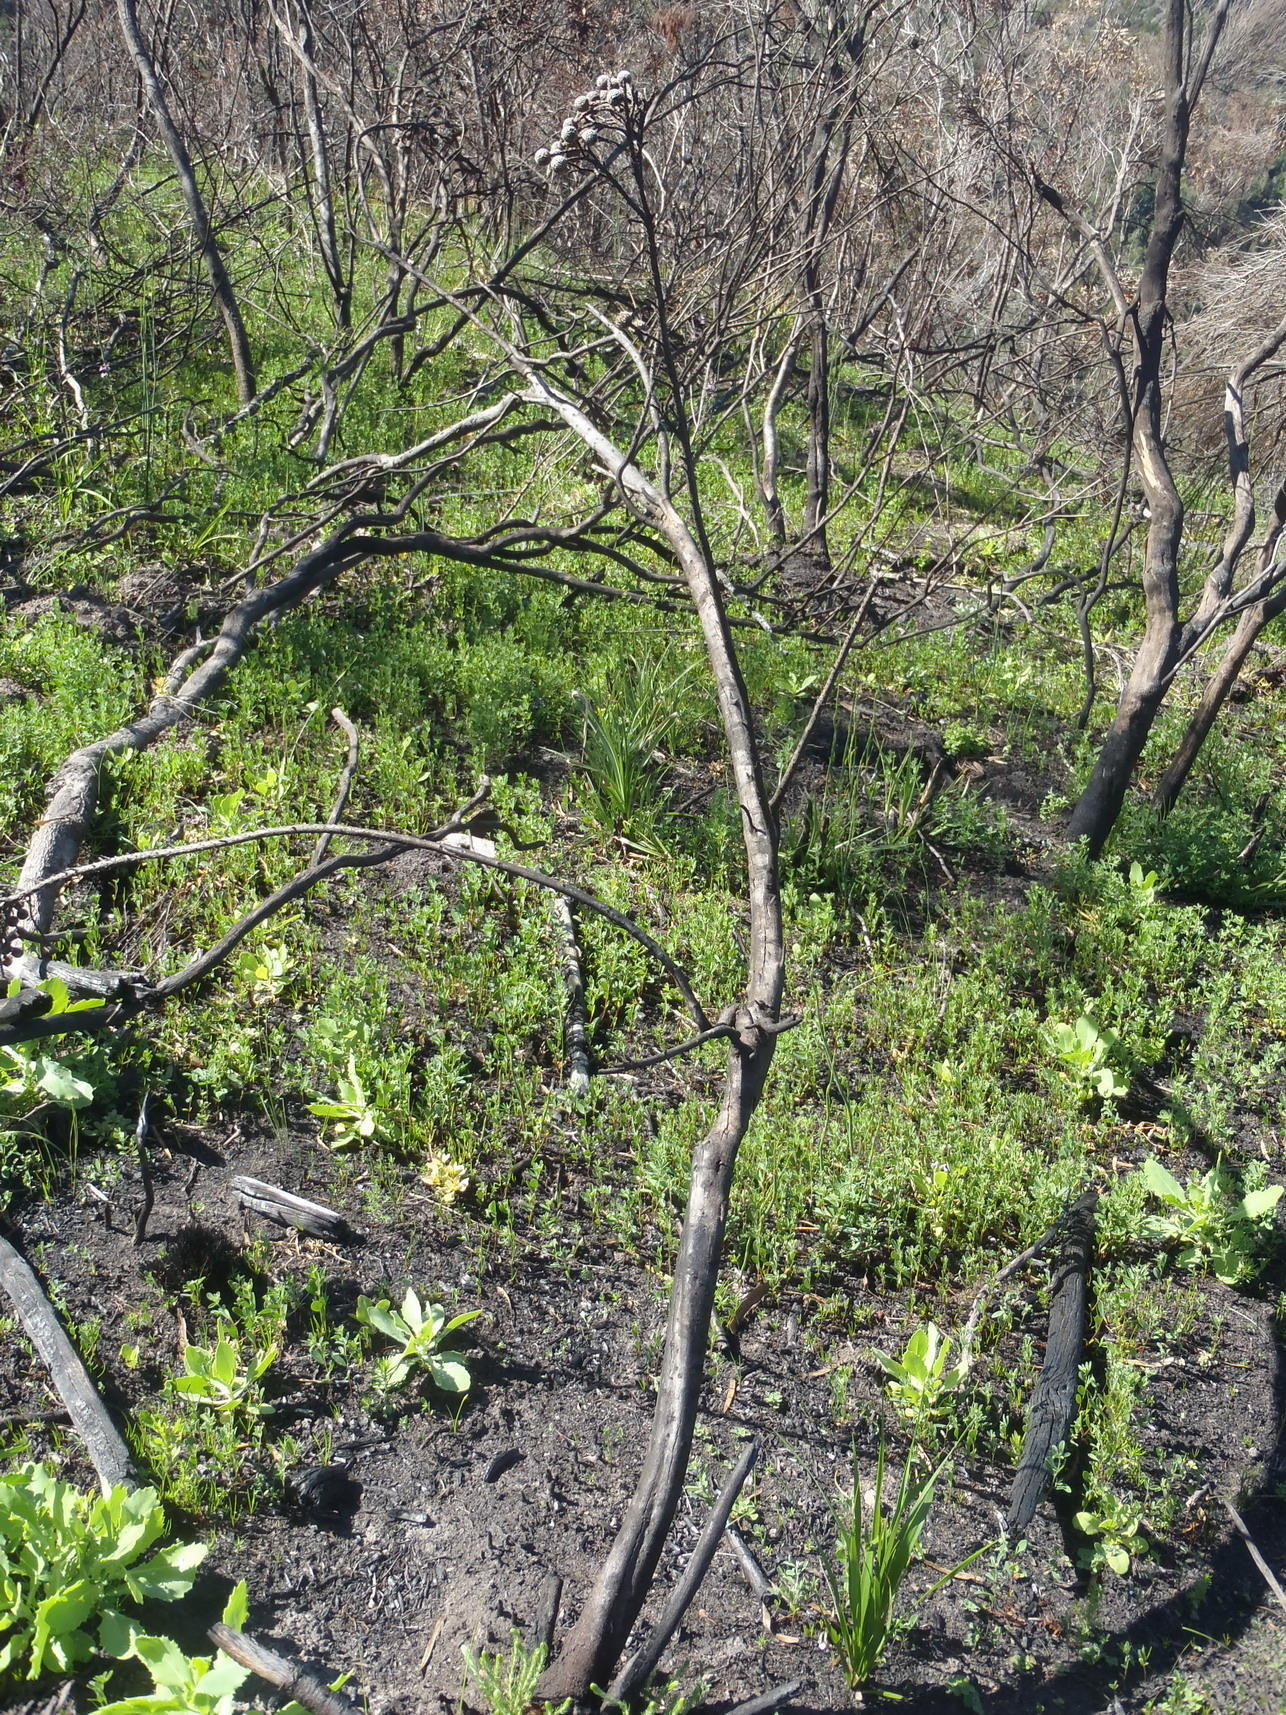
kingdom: Plantae
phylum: Tracheophyta
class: Magnoliopsida
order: Bruniales
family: Bruniaceae
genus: Brunia
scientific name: Brunia noduliflora
